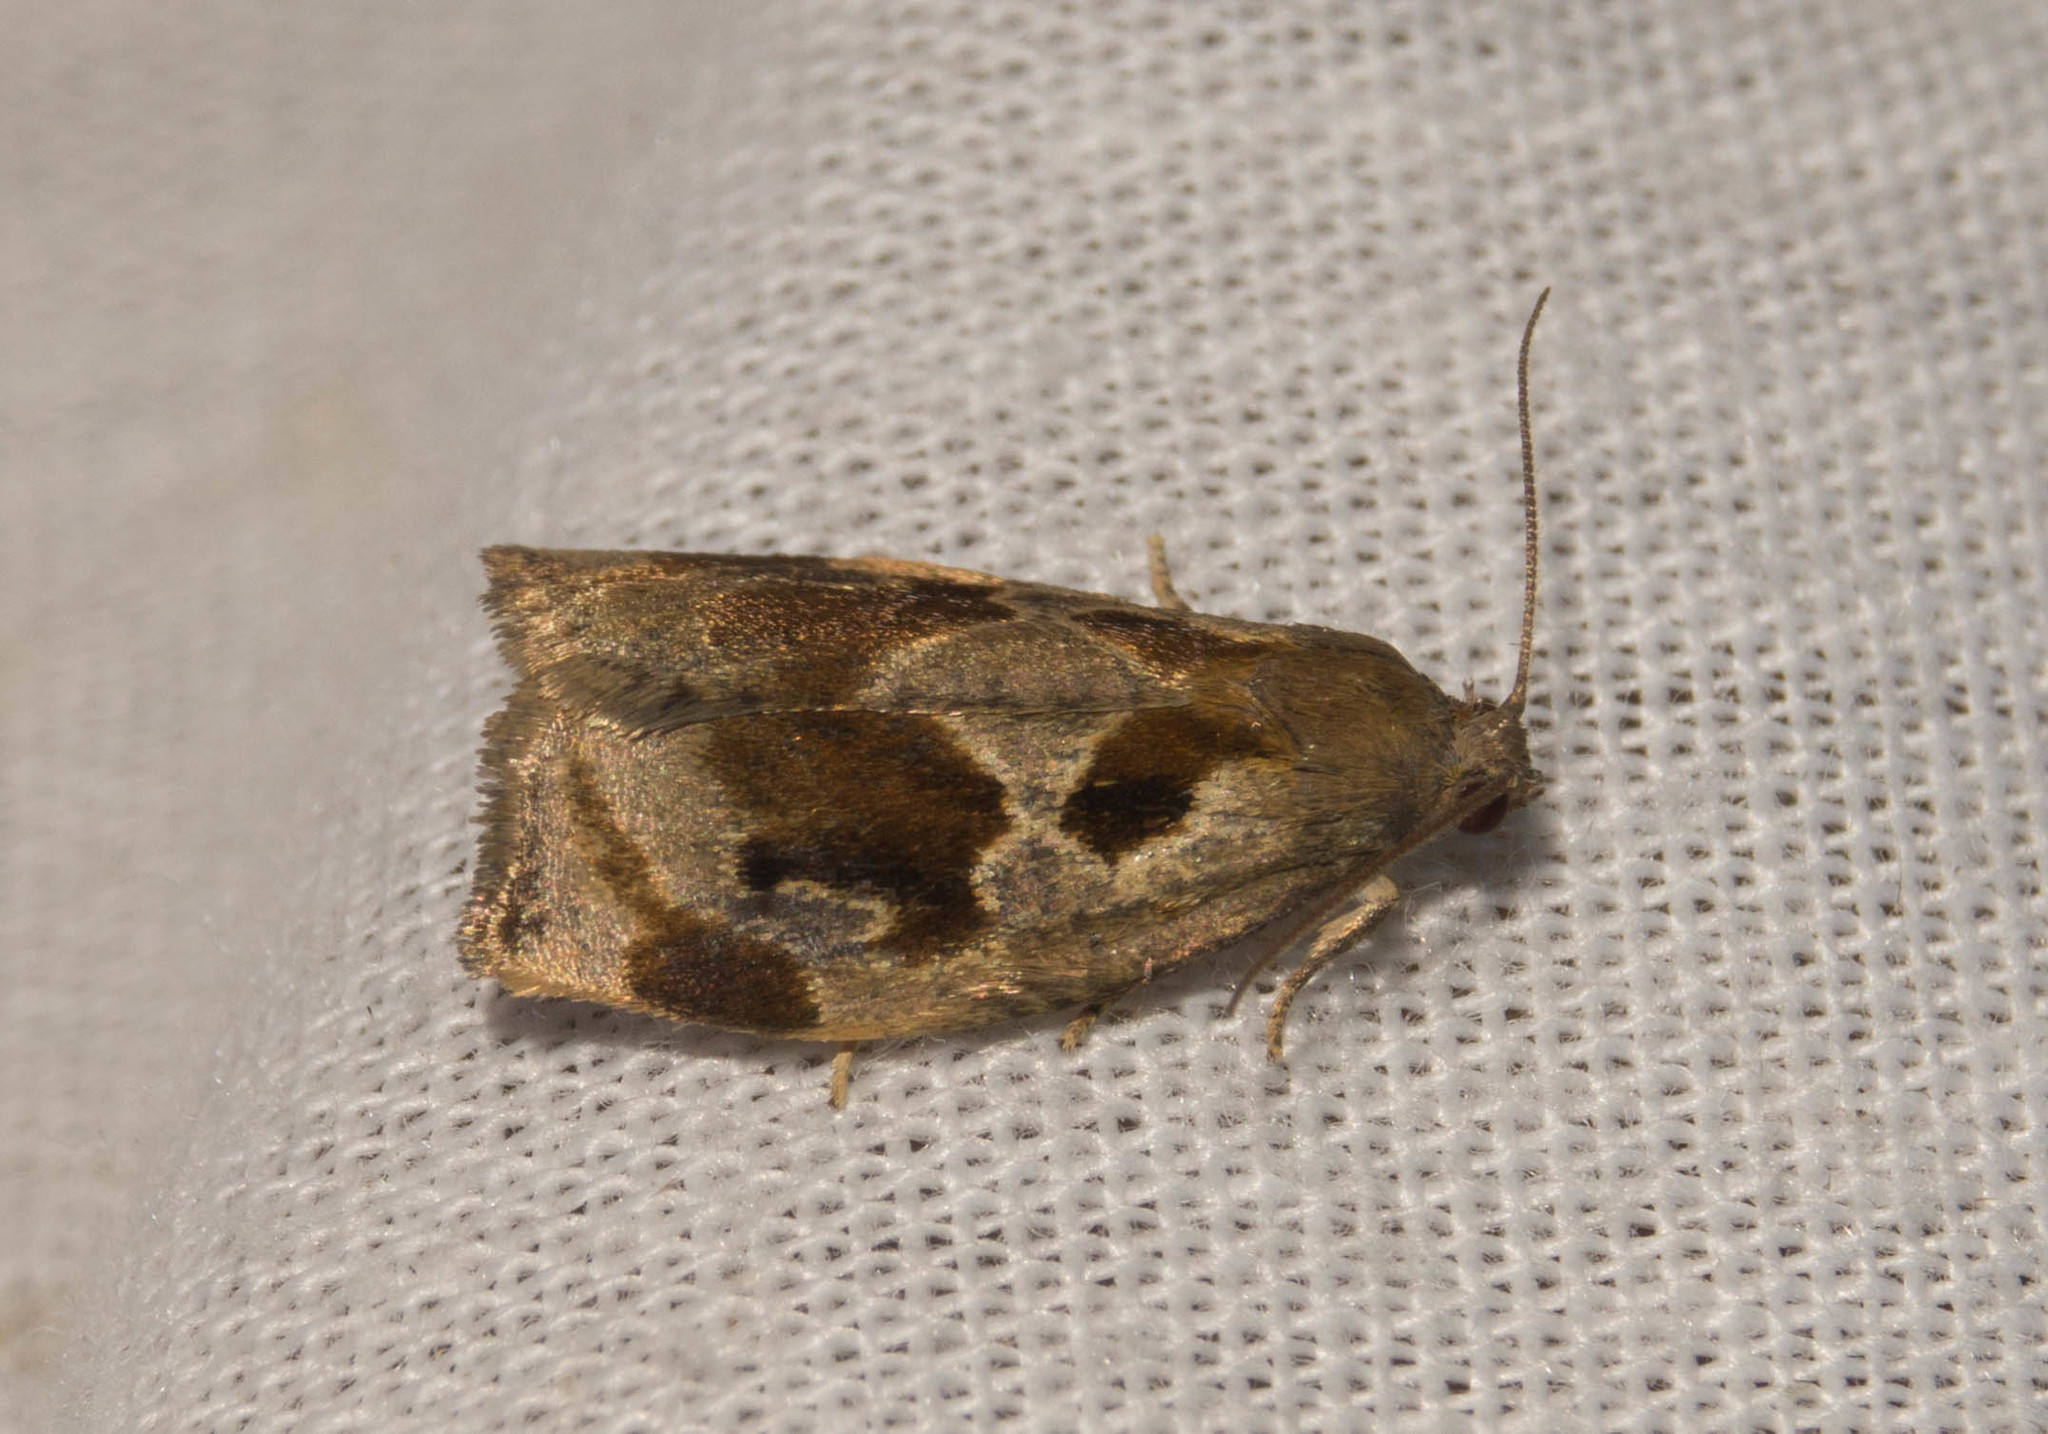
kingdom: Animalia
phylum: Arthropoda
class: Insecta
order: Lepidoptera
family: Tortricidae
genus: Archips
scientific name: Archips crataegana
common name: Brown oak tortrix
